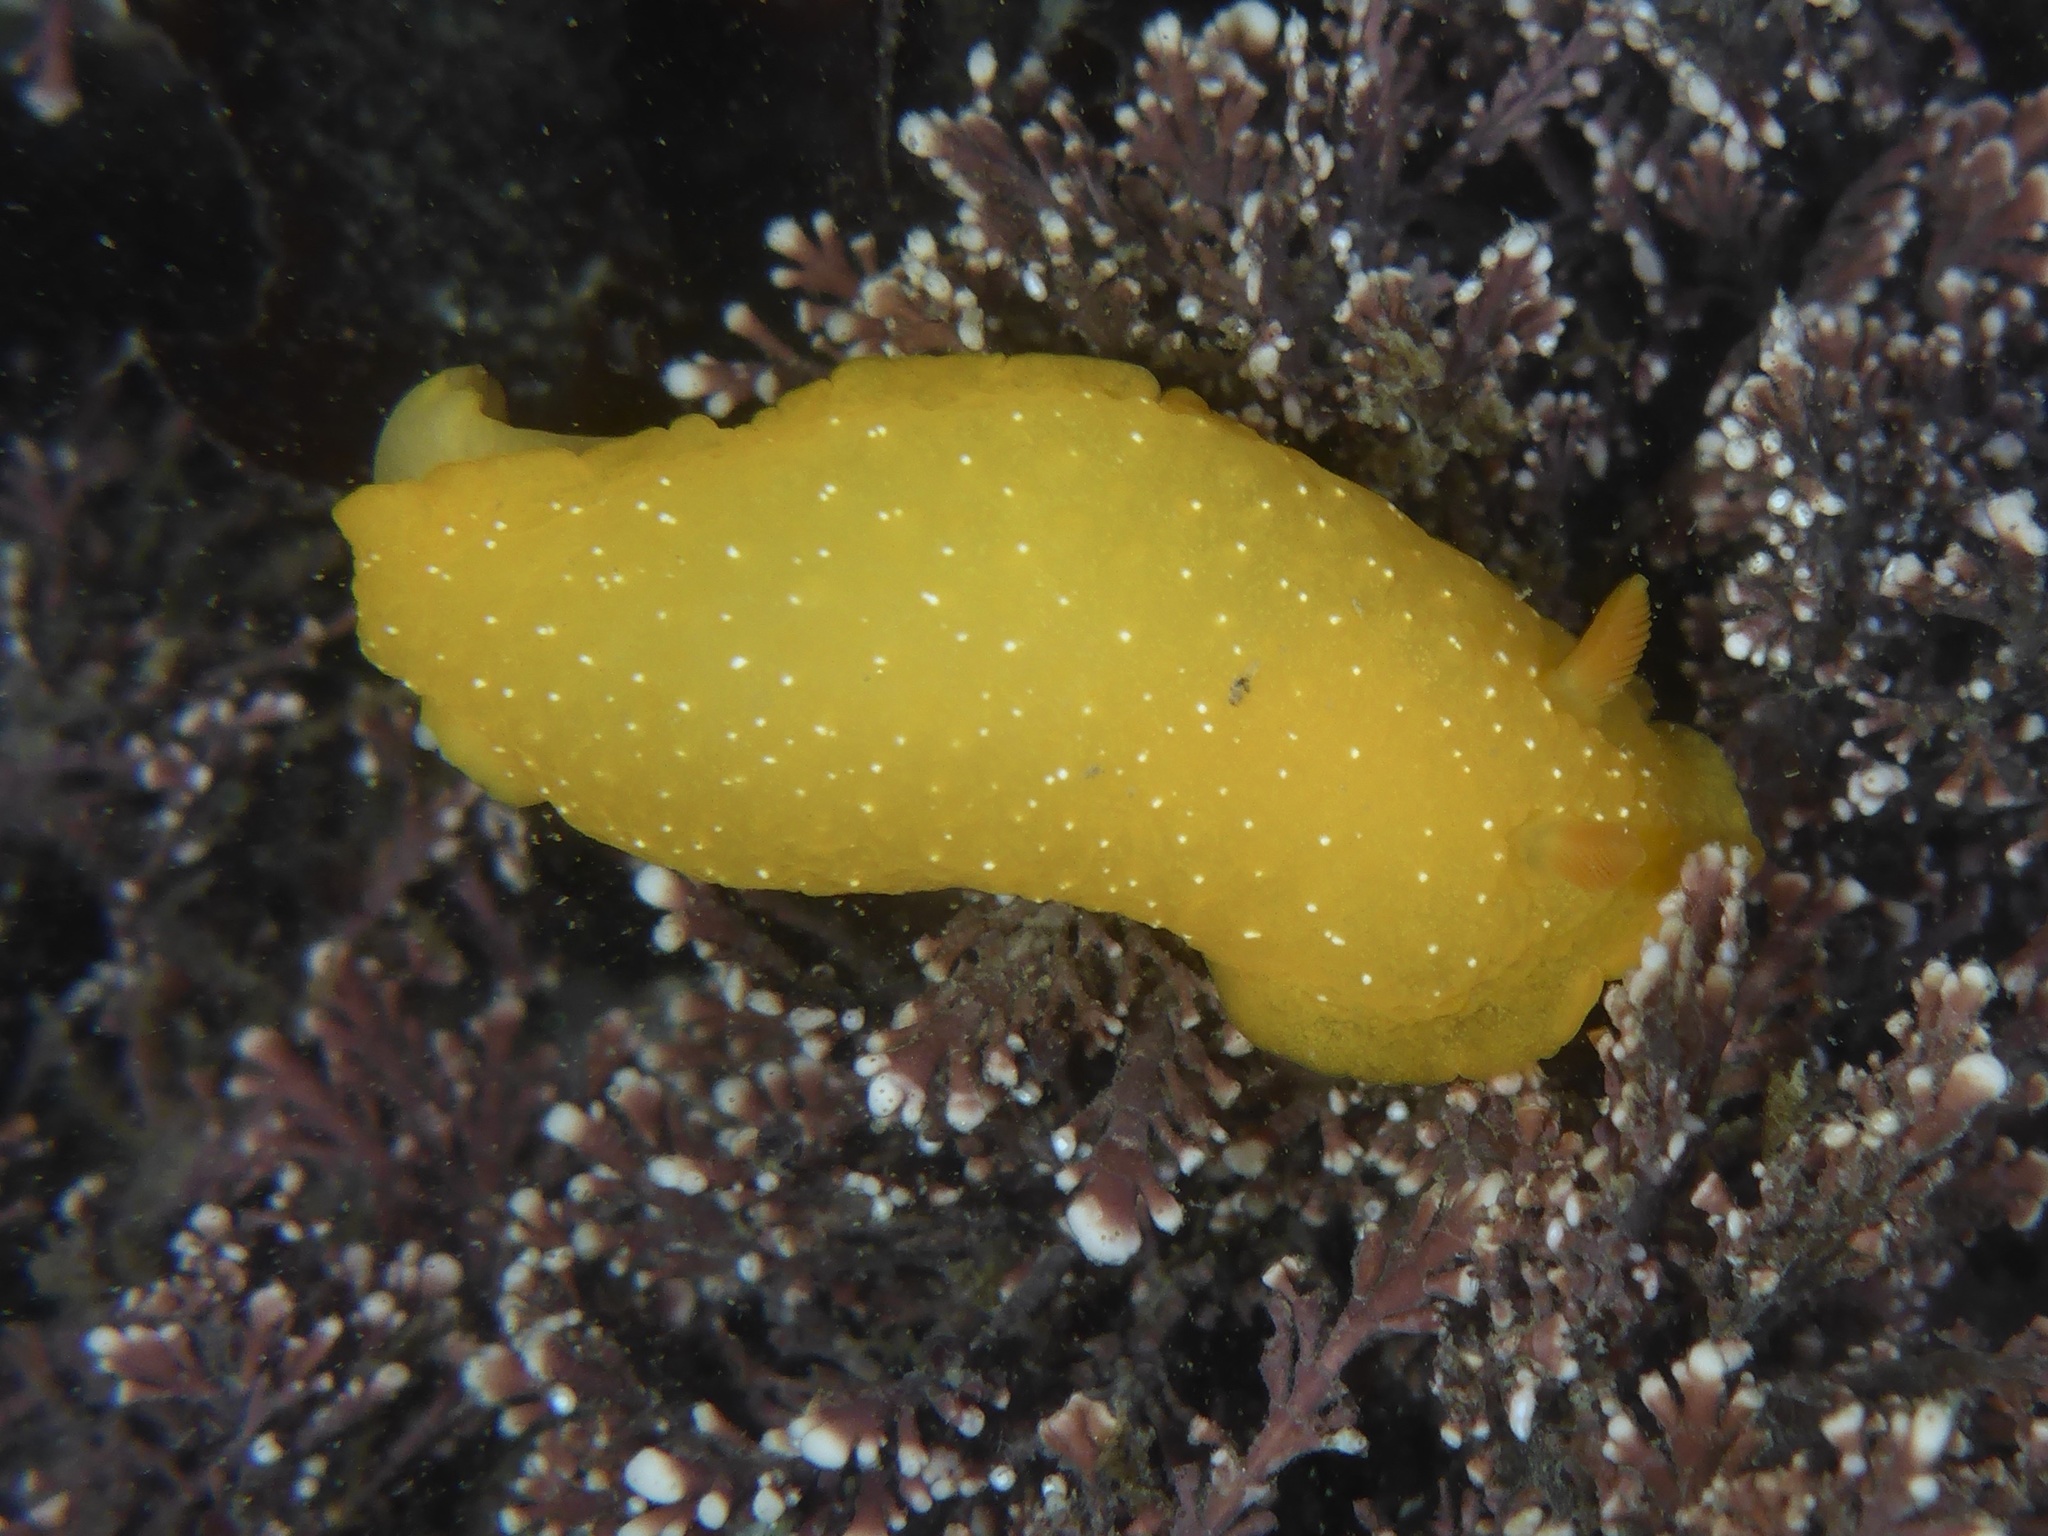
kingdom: Animalia
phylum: Mollusca
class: Gastropoda
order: Nudibranchia
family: Dendrodorididae
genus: Doriopsilla
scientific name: Doriopsilla fulva
